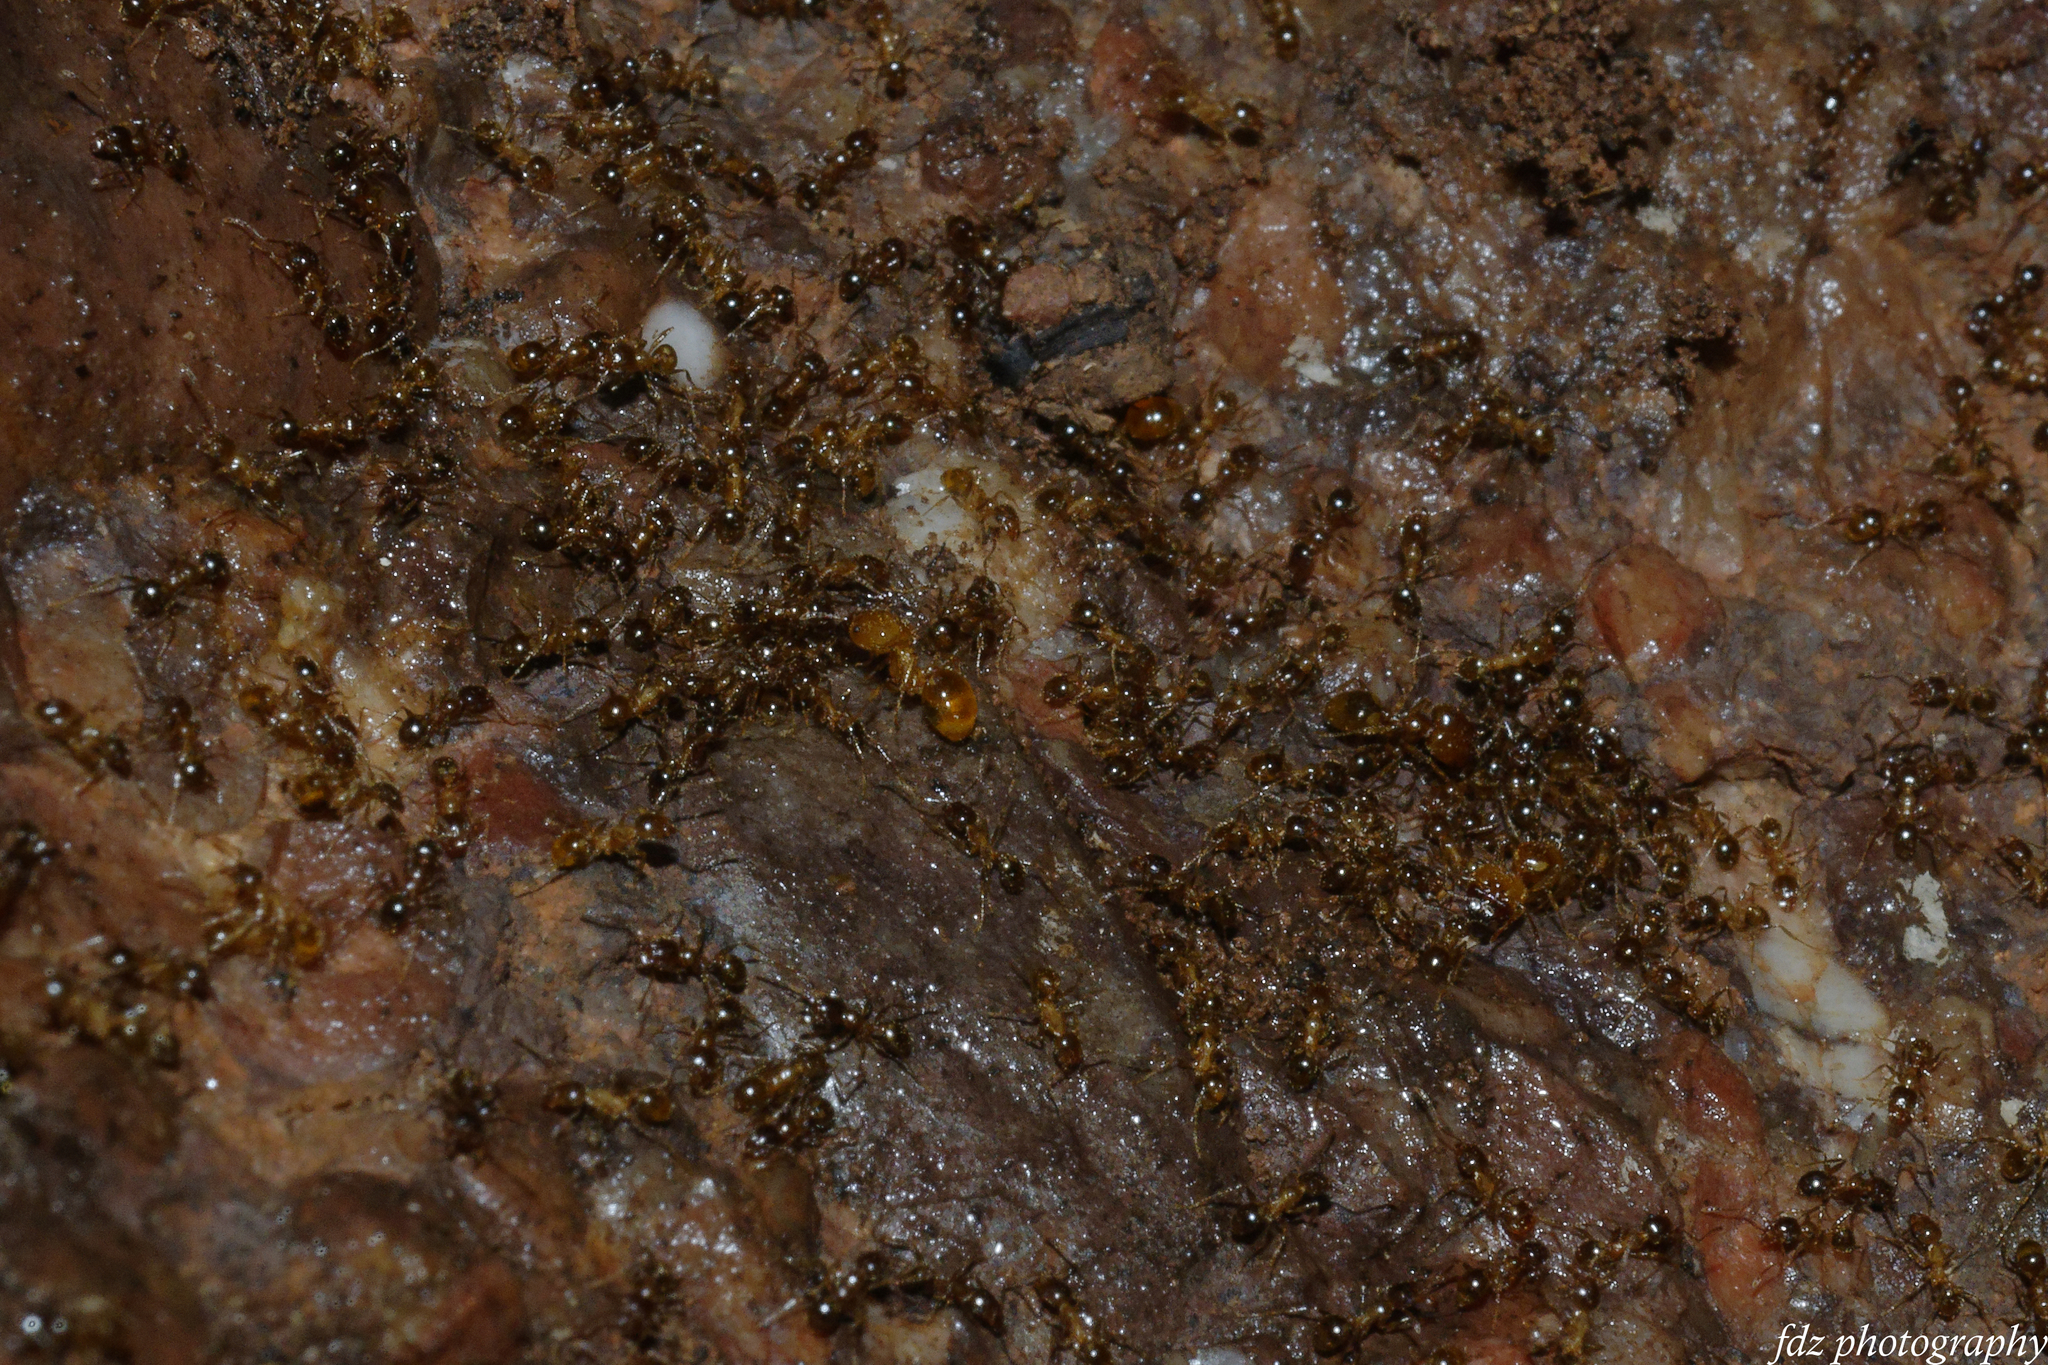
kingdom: Animalia
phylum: Arthropoda
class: Insecta
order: Hymenoptera
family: Formicidae
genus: Pheidole
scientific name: Pheidole pallidula
